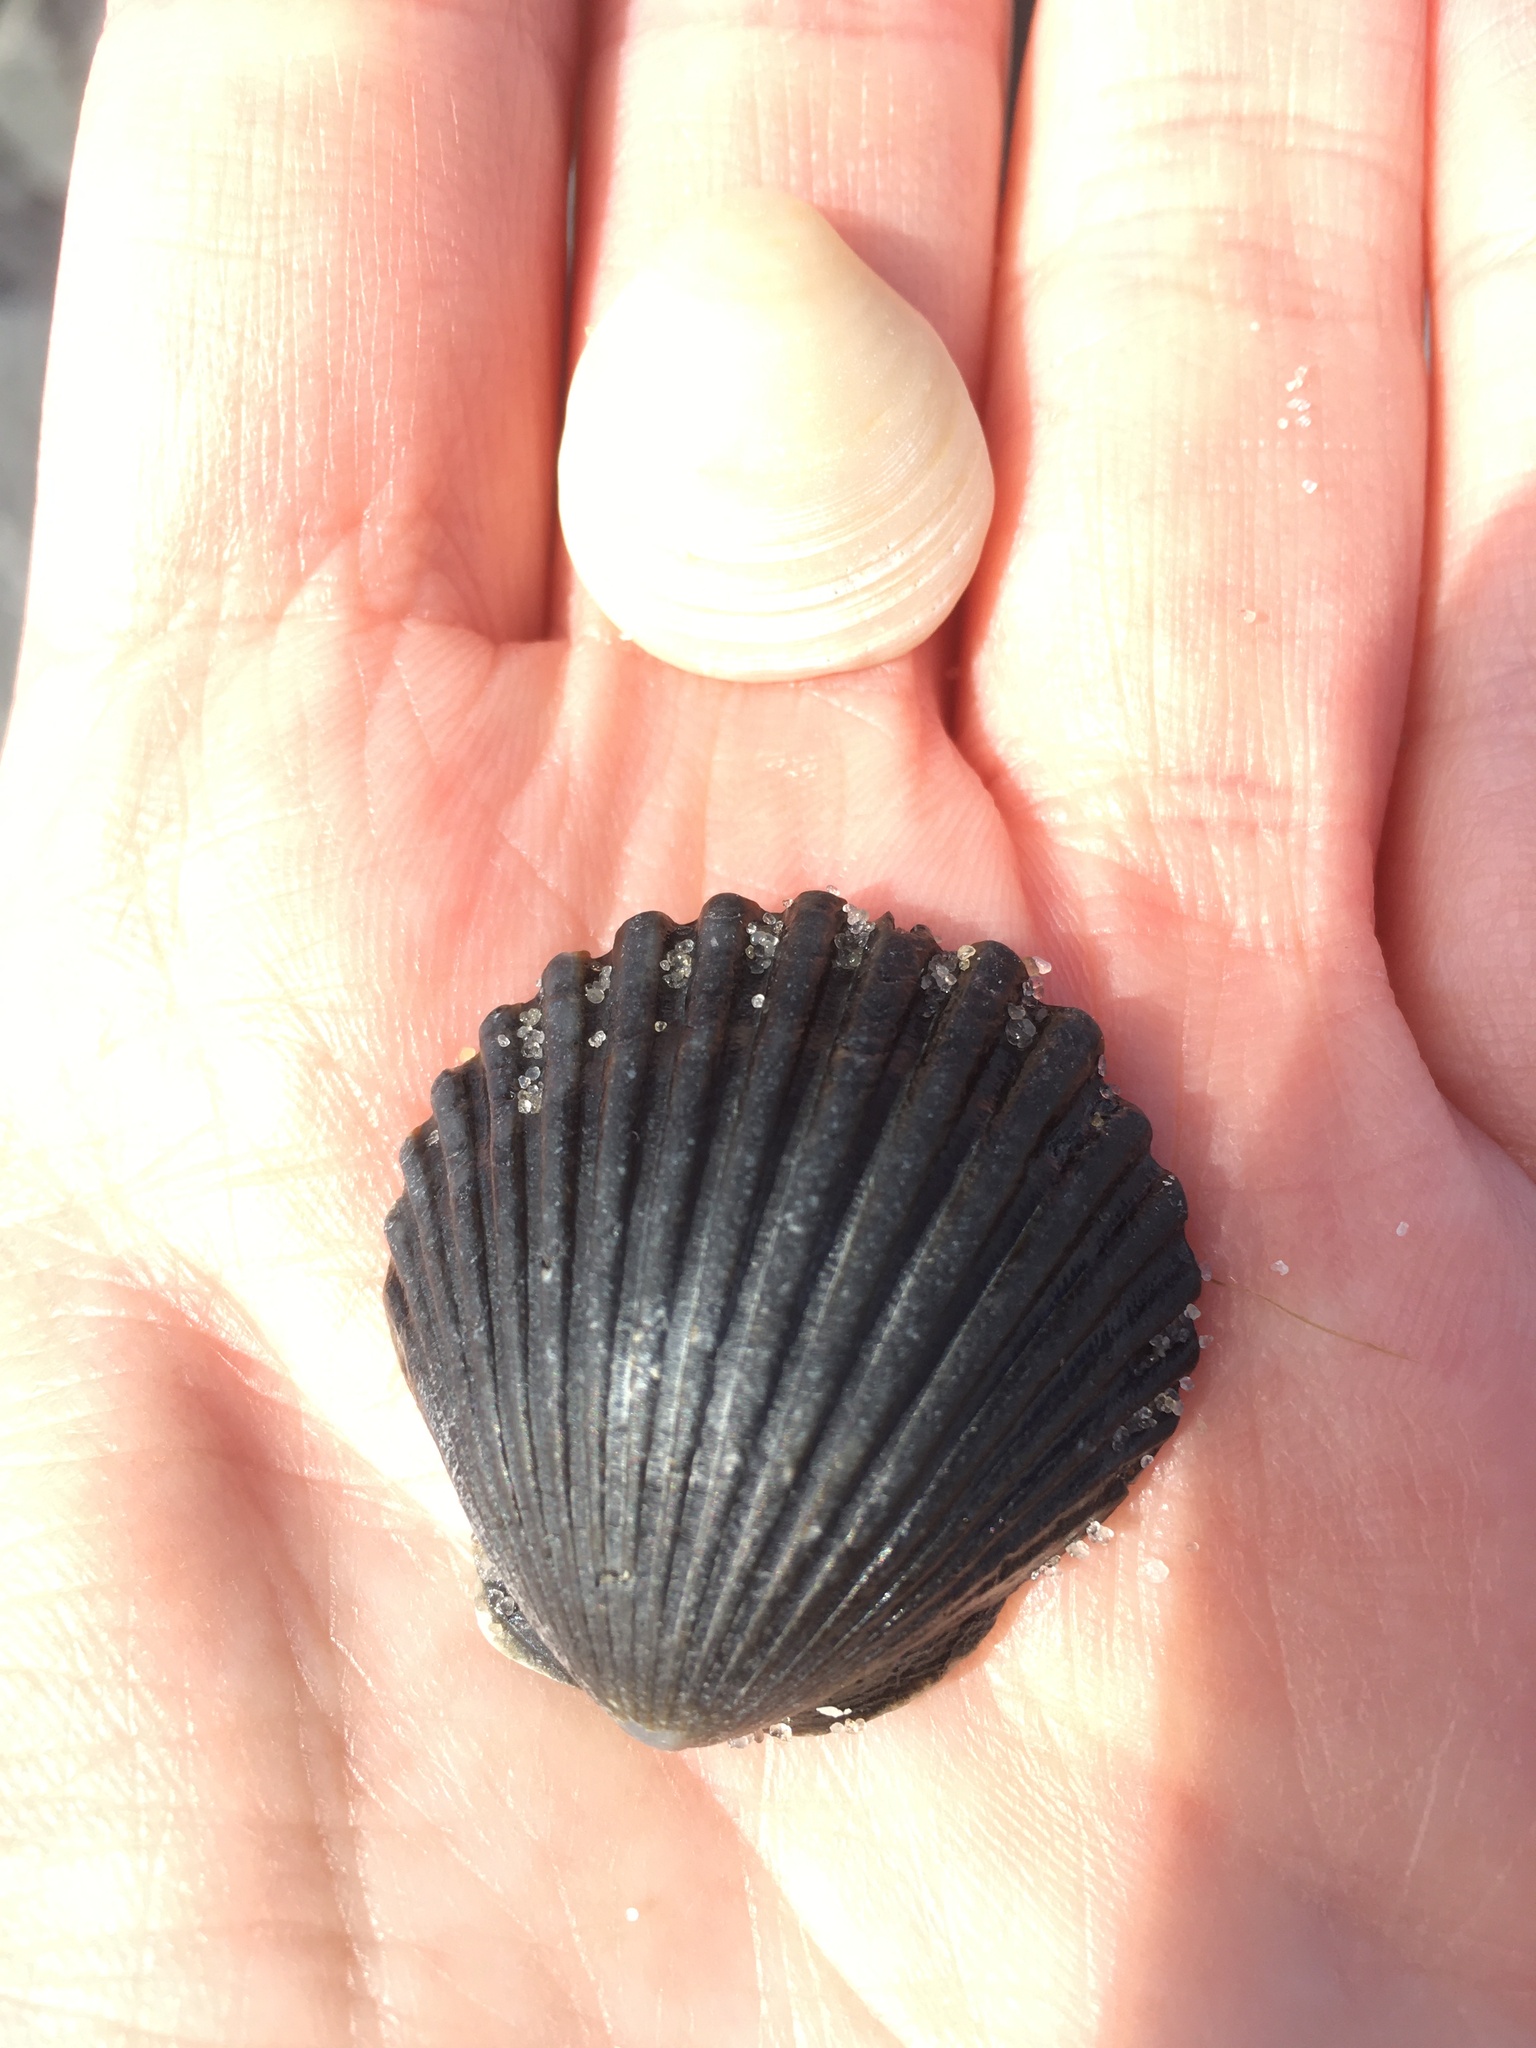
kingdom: Animalia
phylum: Mollusca
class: Bivalvia
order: Pectinida
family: Pectinidae
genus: Argopecten
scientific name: Argopecten irradians
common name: Atlantic bay scallop
